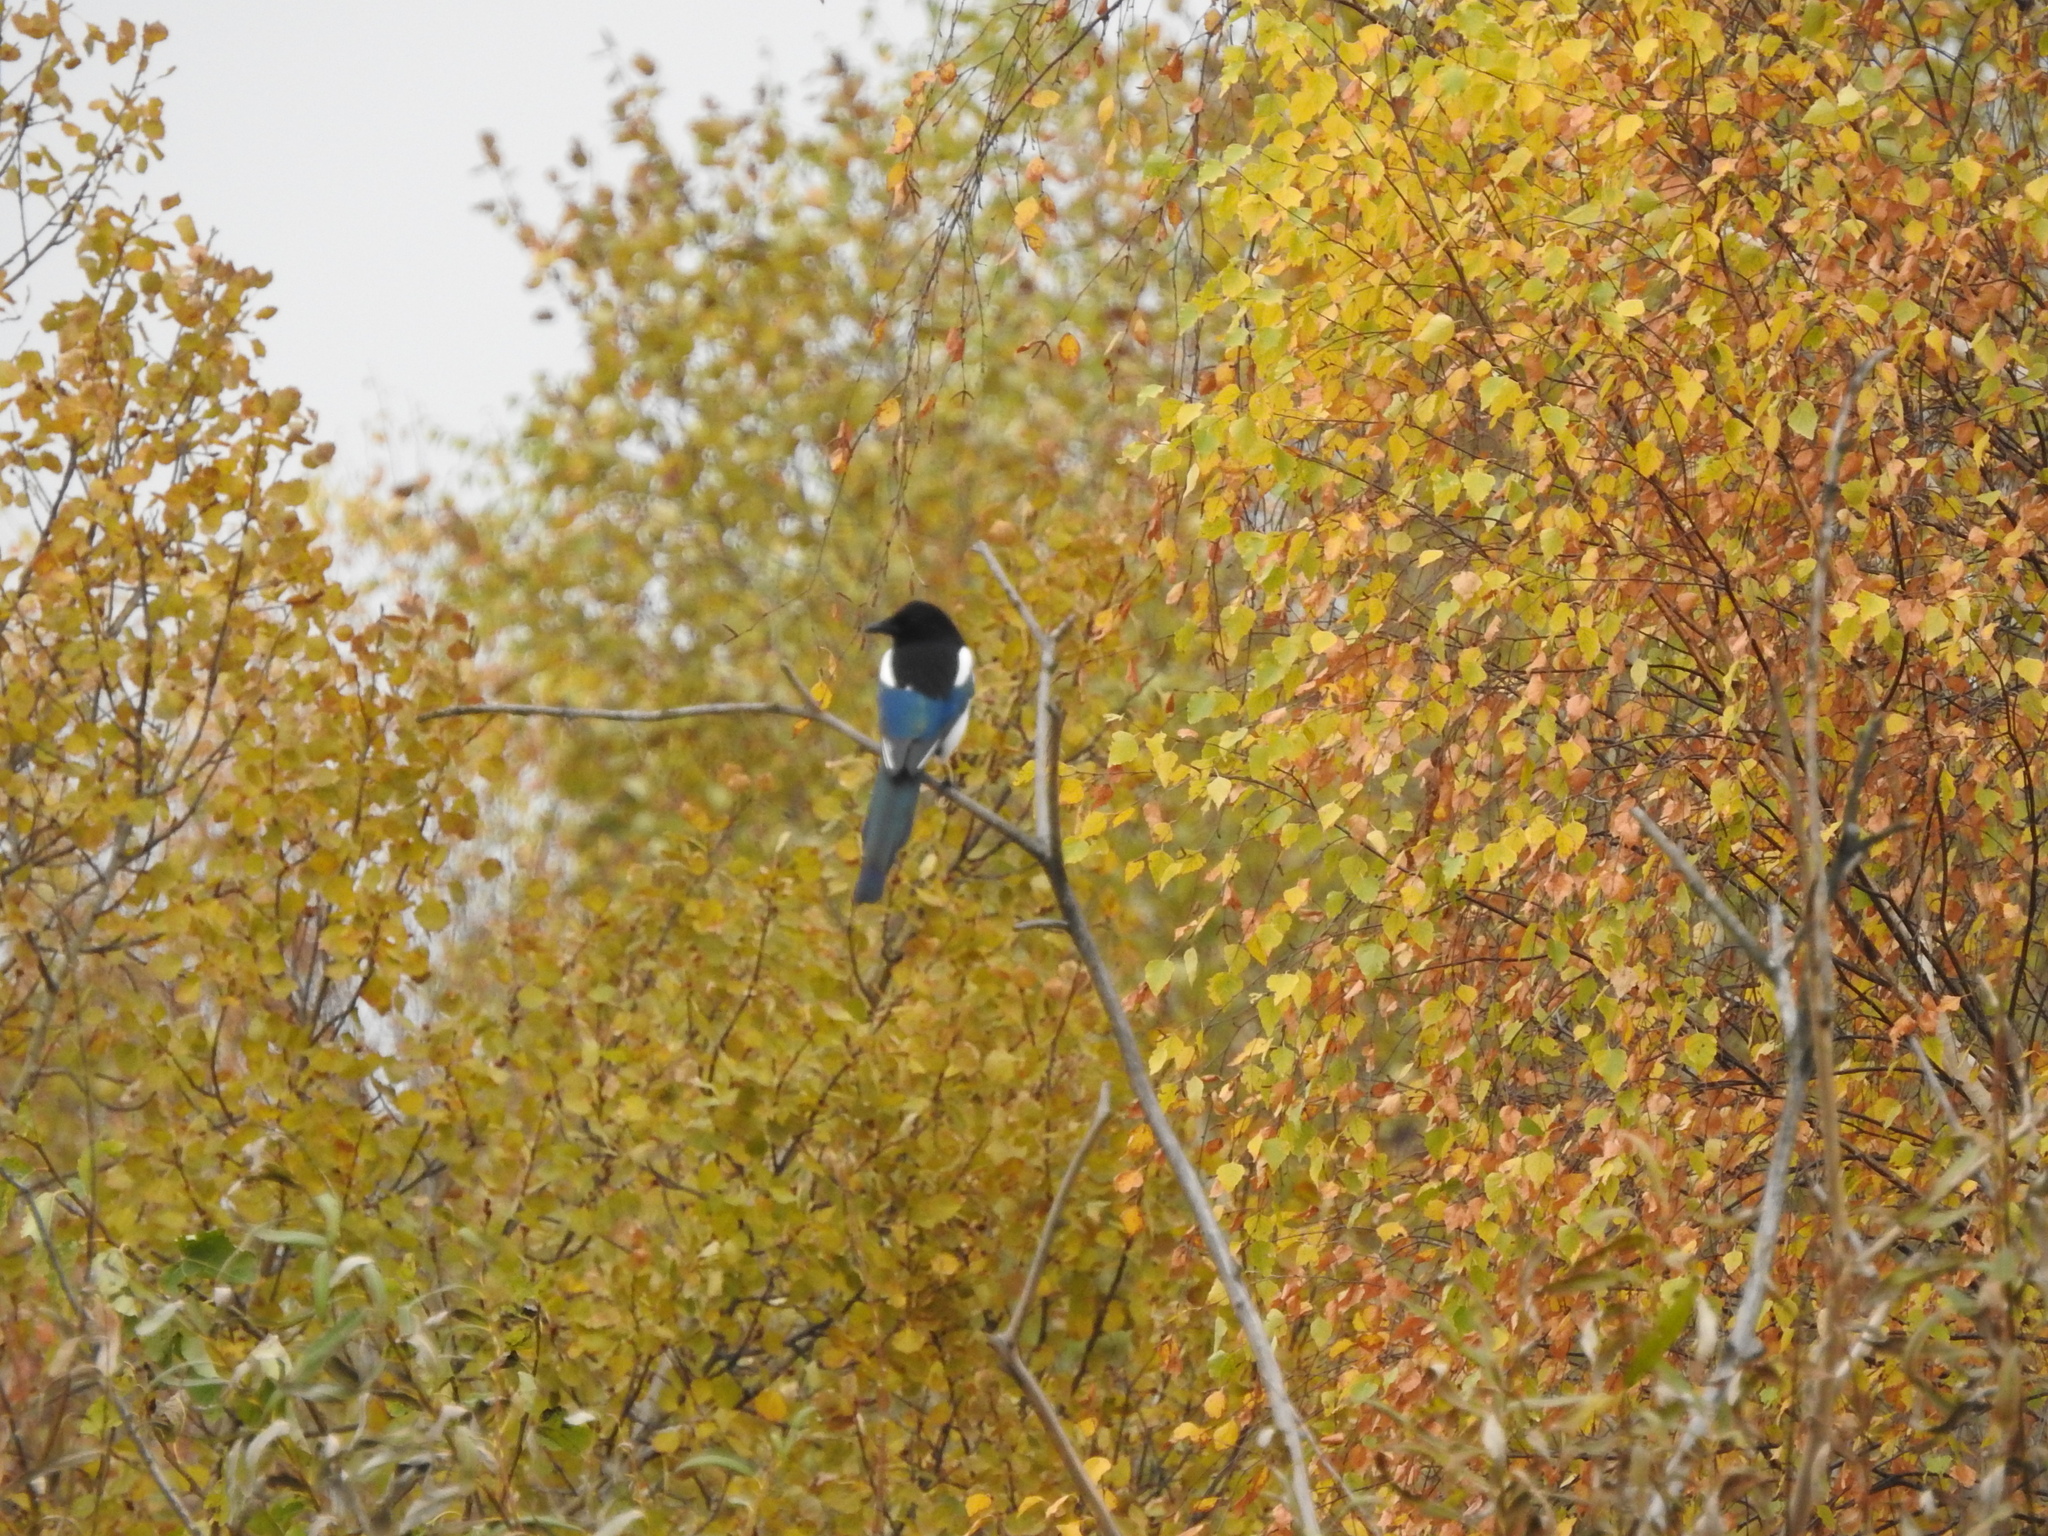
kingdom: Animalia
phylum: Chordata
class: Aves
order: Passeriformes
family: Corvidae
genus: Pica
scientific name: Pica pica
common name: Eurasian magpie
